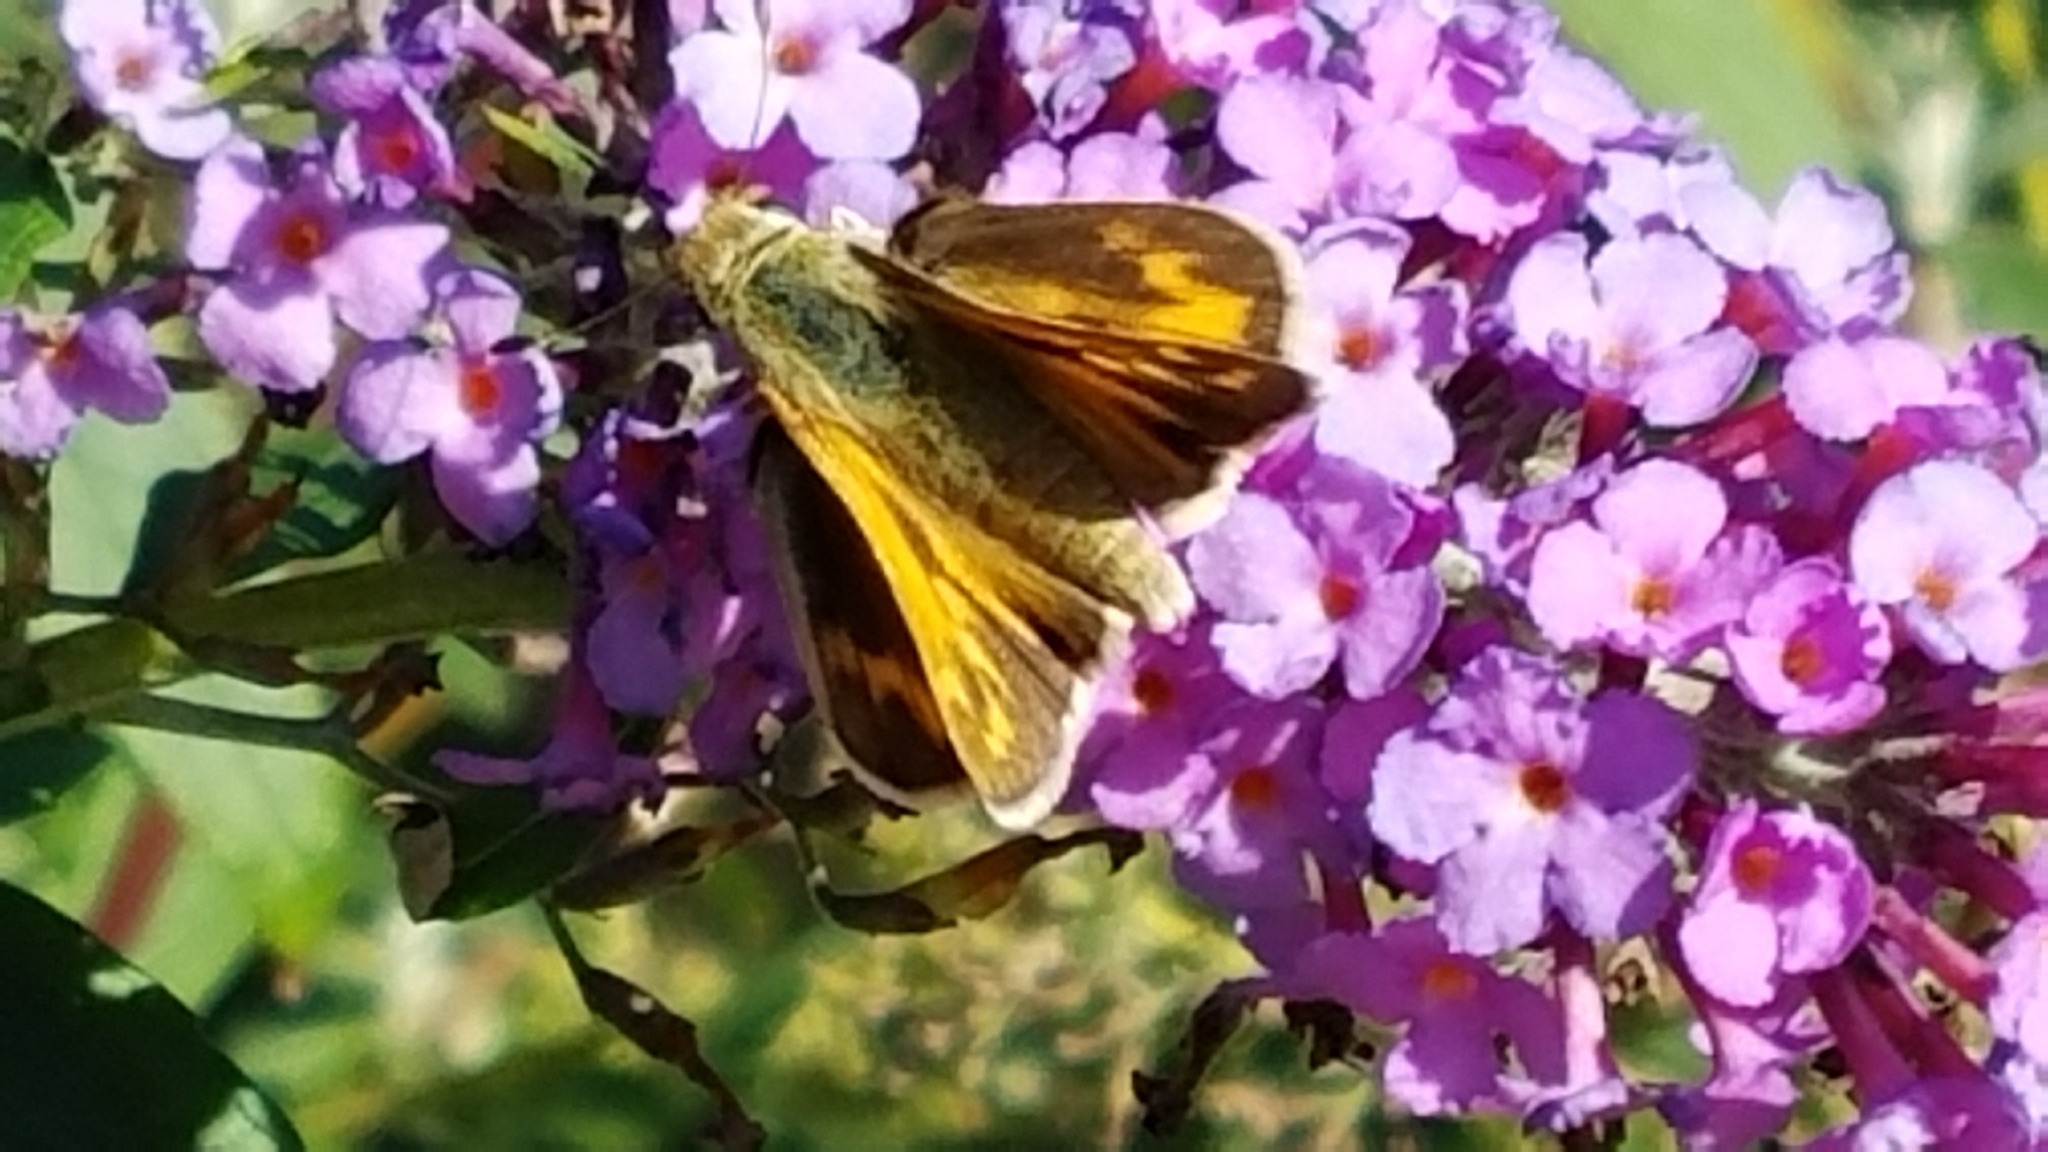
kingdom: Animalia
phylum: Arthropoda
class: Insecta
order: Lepidoptera
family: Hesperiidae
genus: Ochlodes
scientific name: Ochlodes sylvanoides
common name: Woodland skipper
